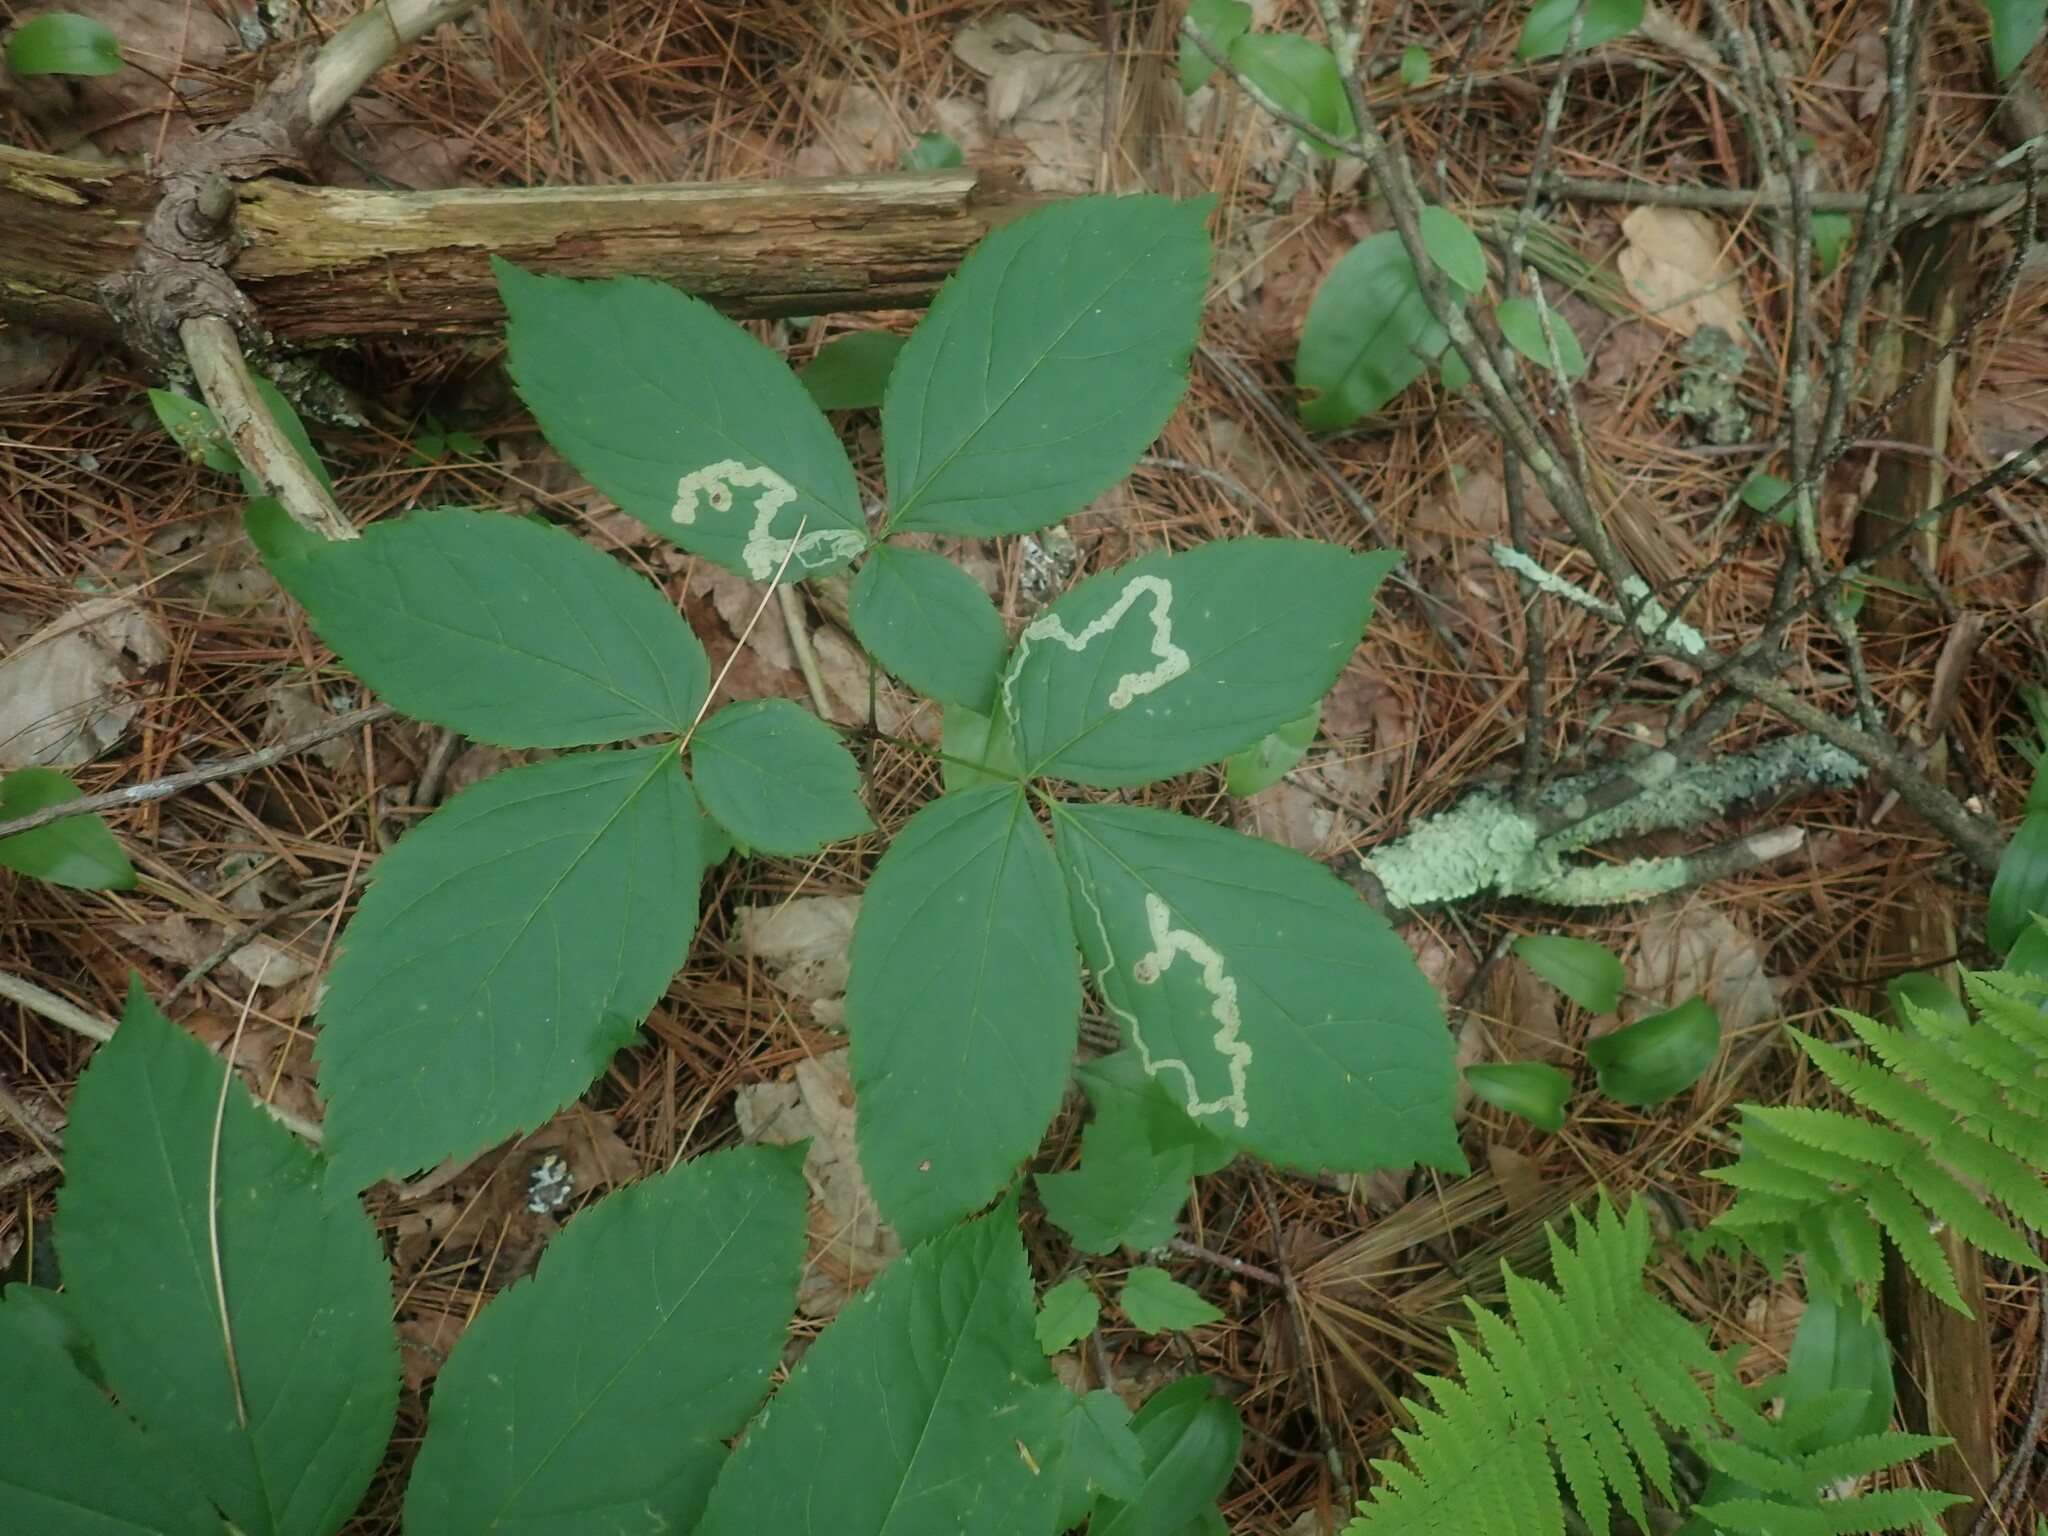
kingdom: Animalia
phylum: Arthropoda
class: Insecta
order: Diptera
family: Agromyzidae
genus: Phytomyza
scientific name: Phytomyza aralivora
